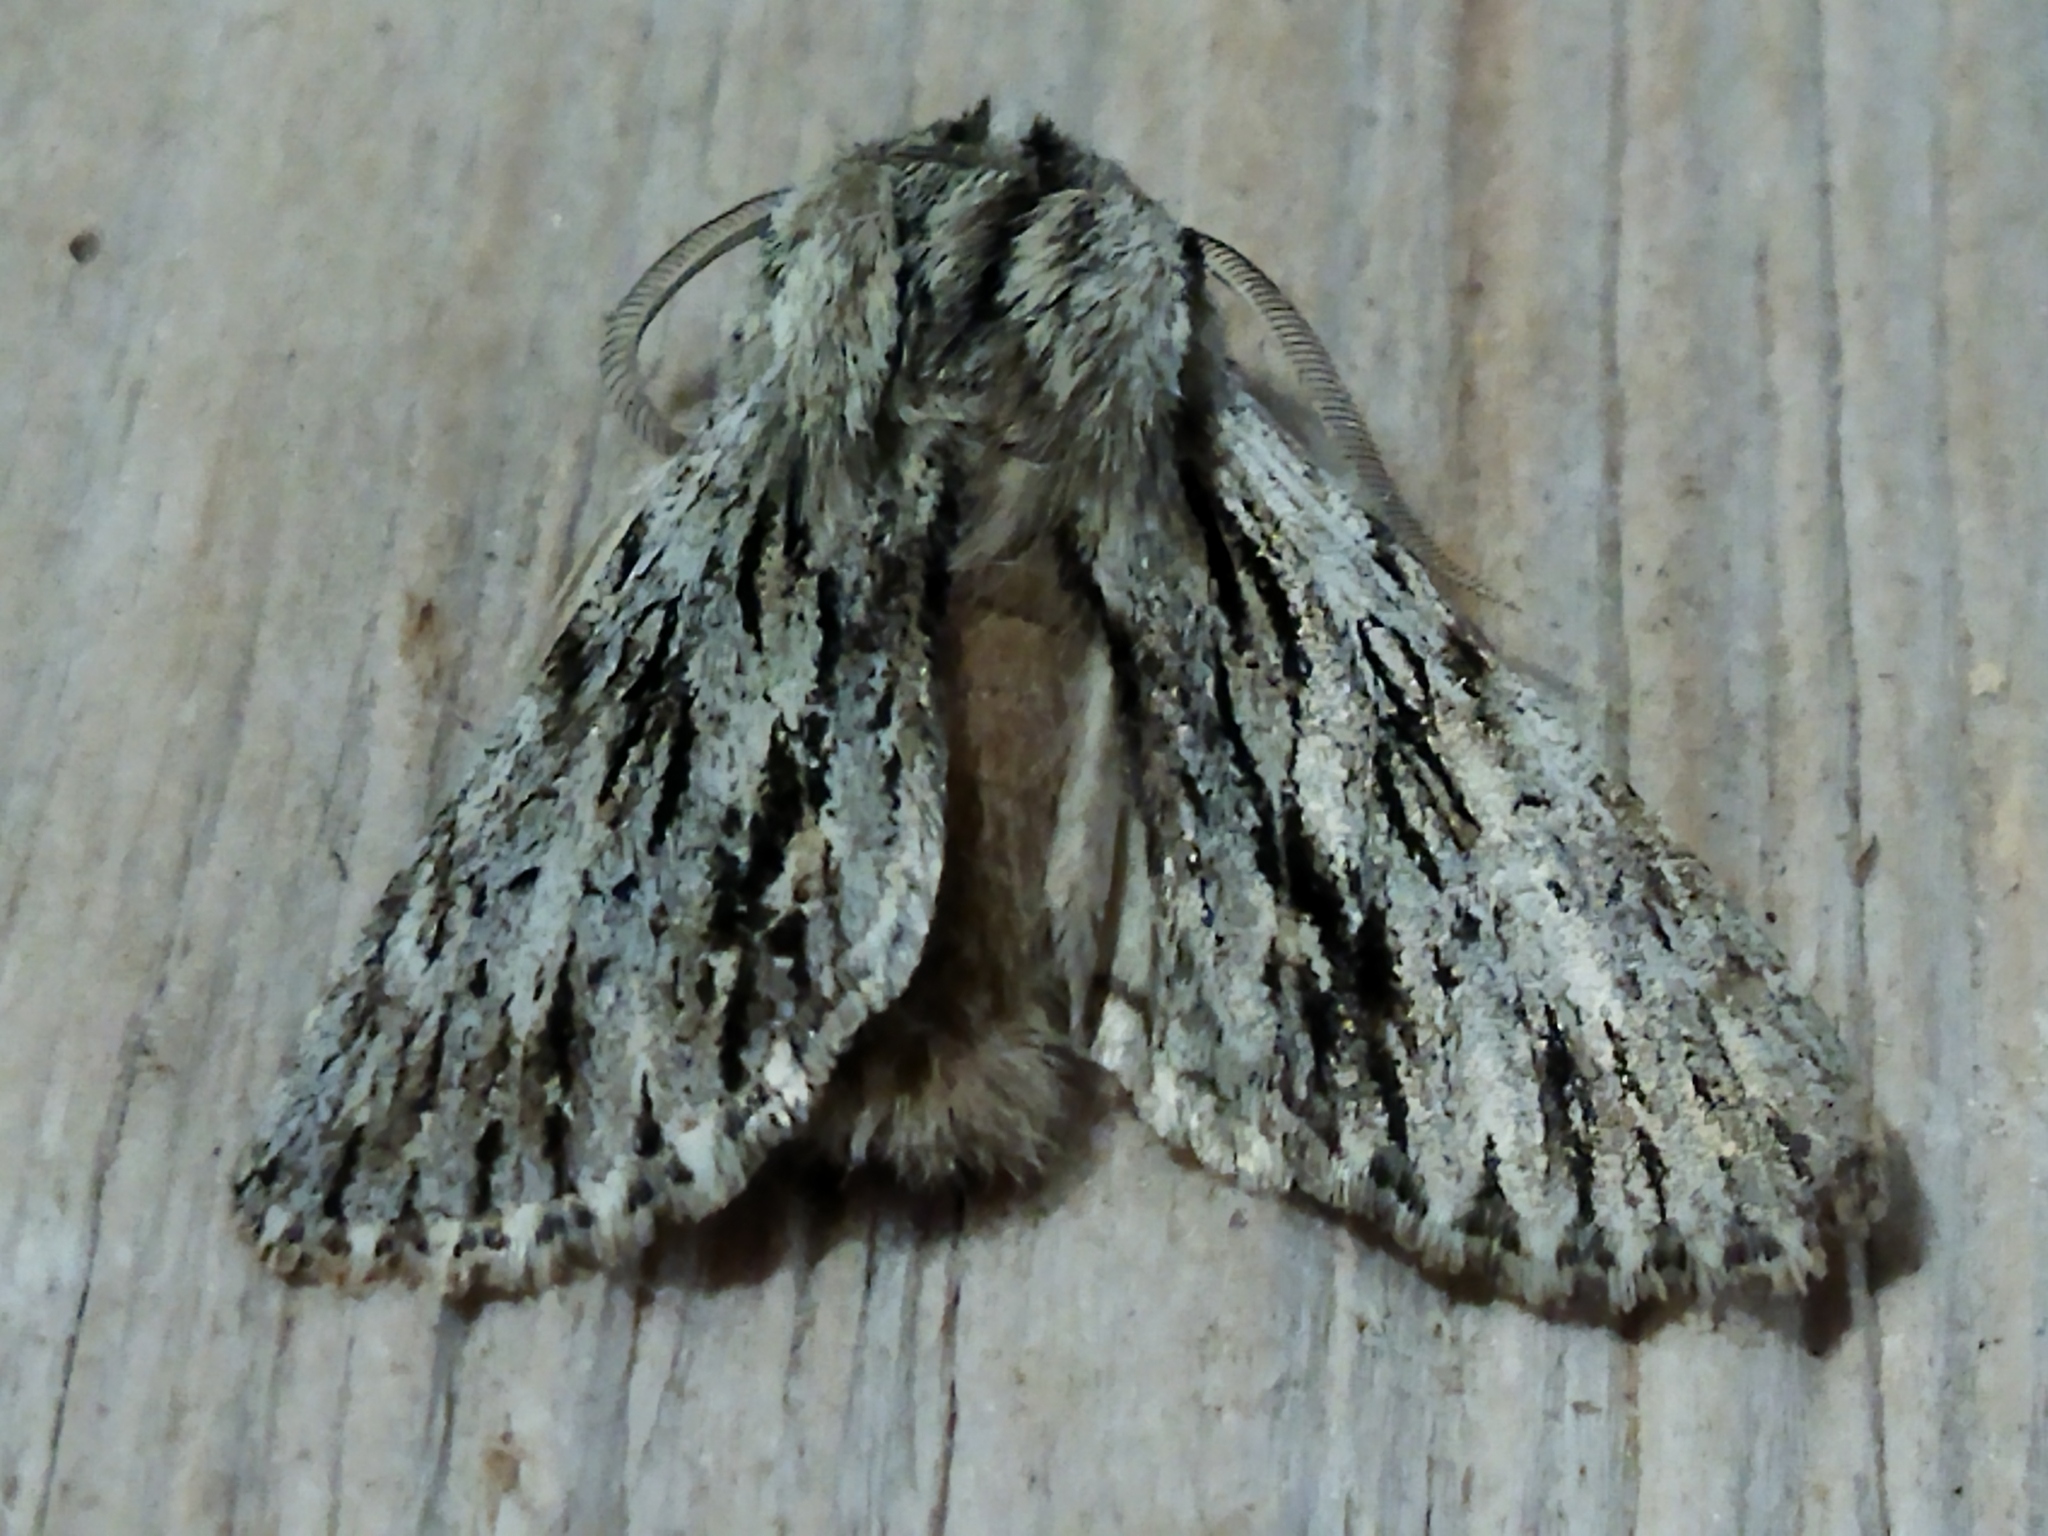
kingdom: Animalia
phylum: Arthropoda
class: Insecta
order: Lepidoptera
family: Noctuidae
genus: Asteroscopus
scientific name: Asteroscopus sphinx
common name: The sprawler
